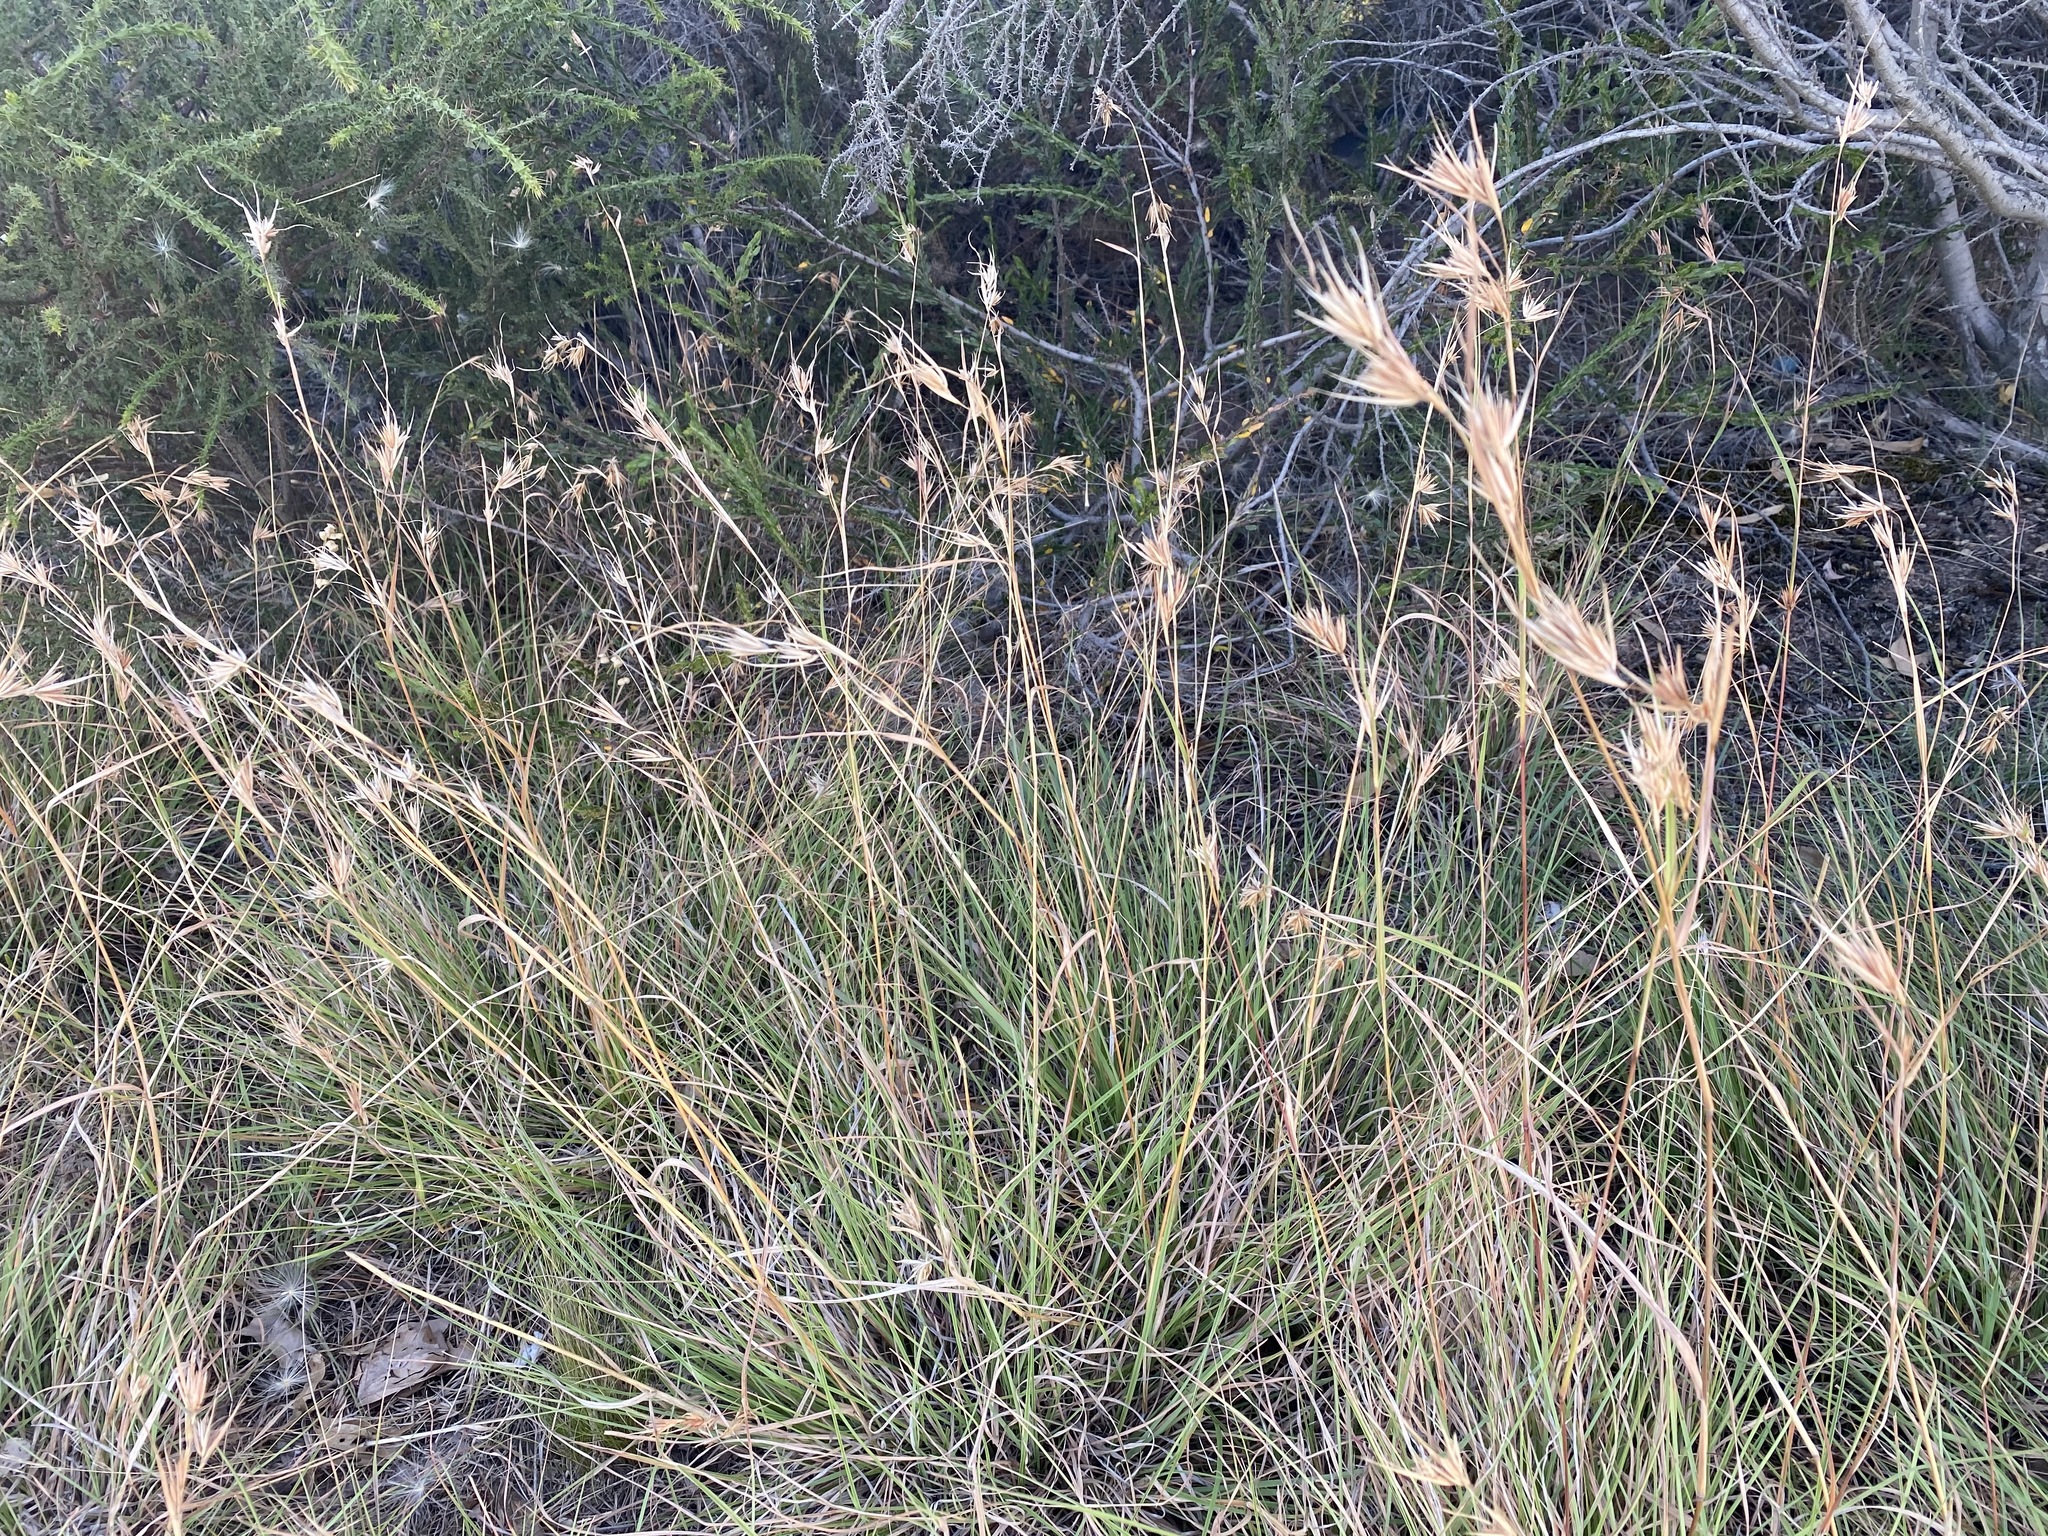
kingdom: Plantae
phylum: Tracheophyta
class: Liliopsida
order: Poales
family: Poaceae
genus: Themeda
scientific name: Themeda triandra
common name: Kangaroo grass
